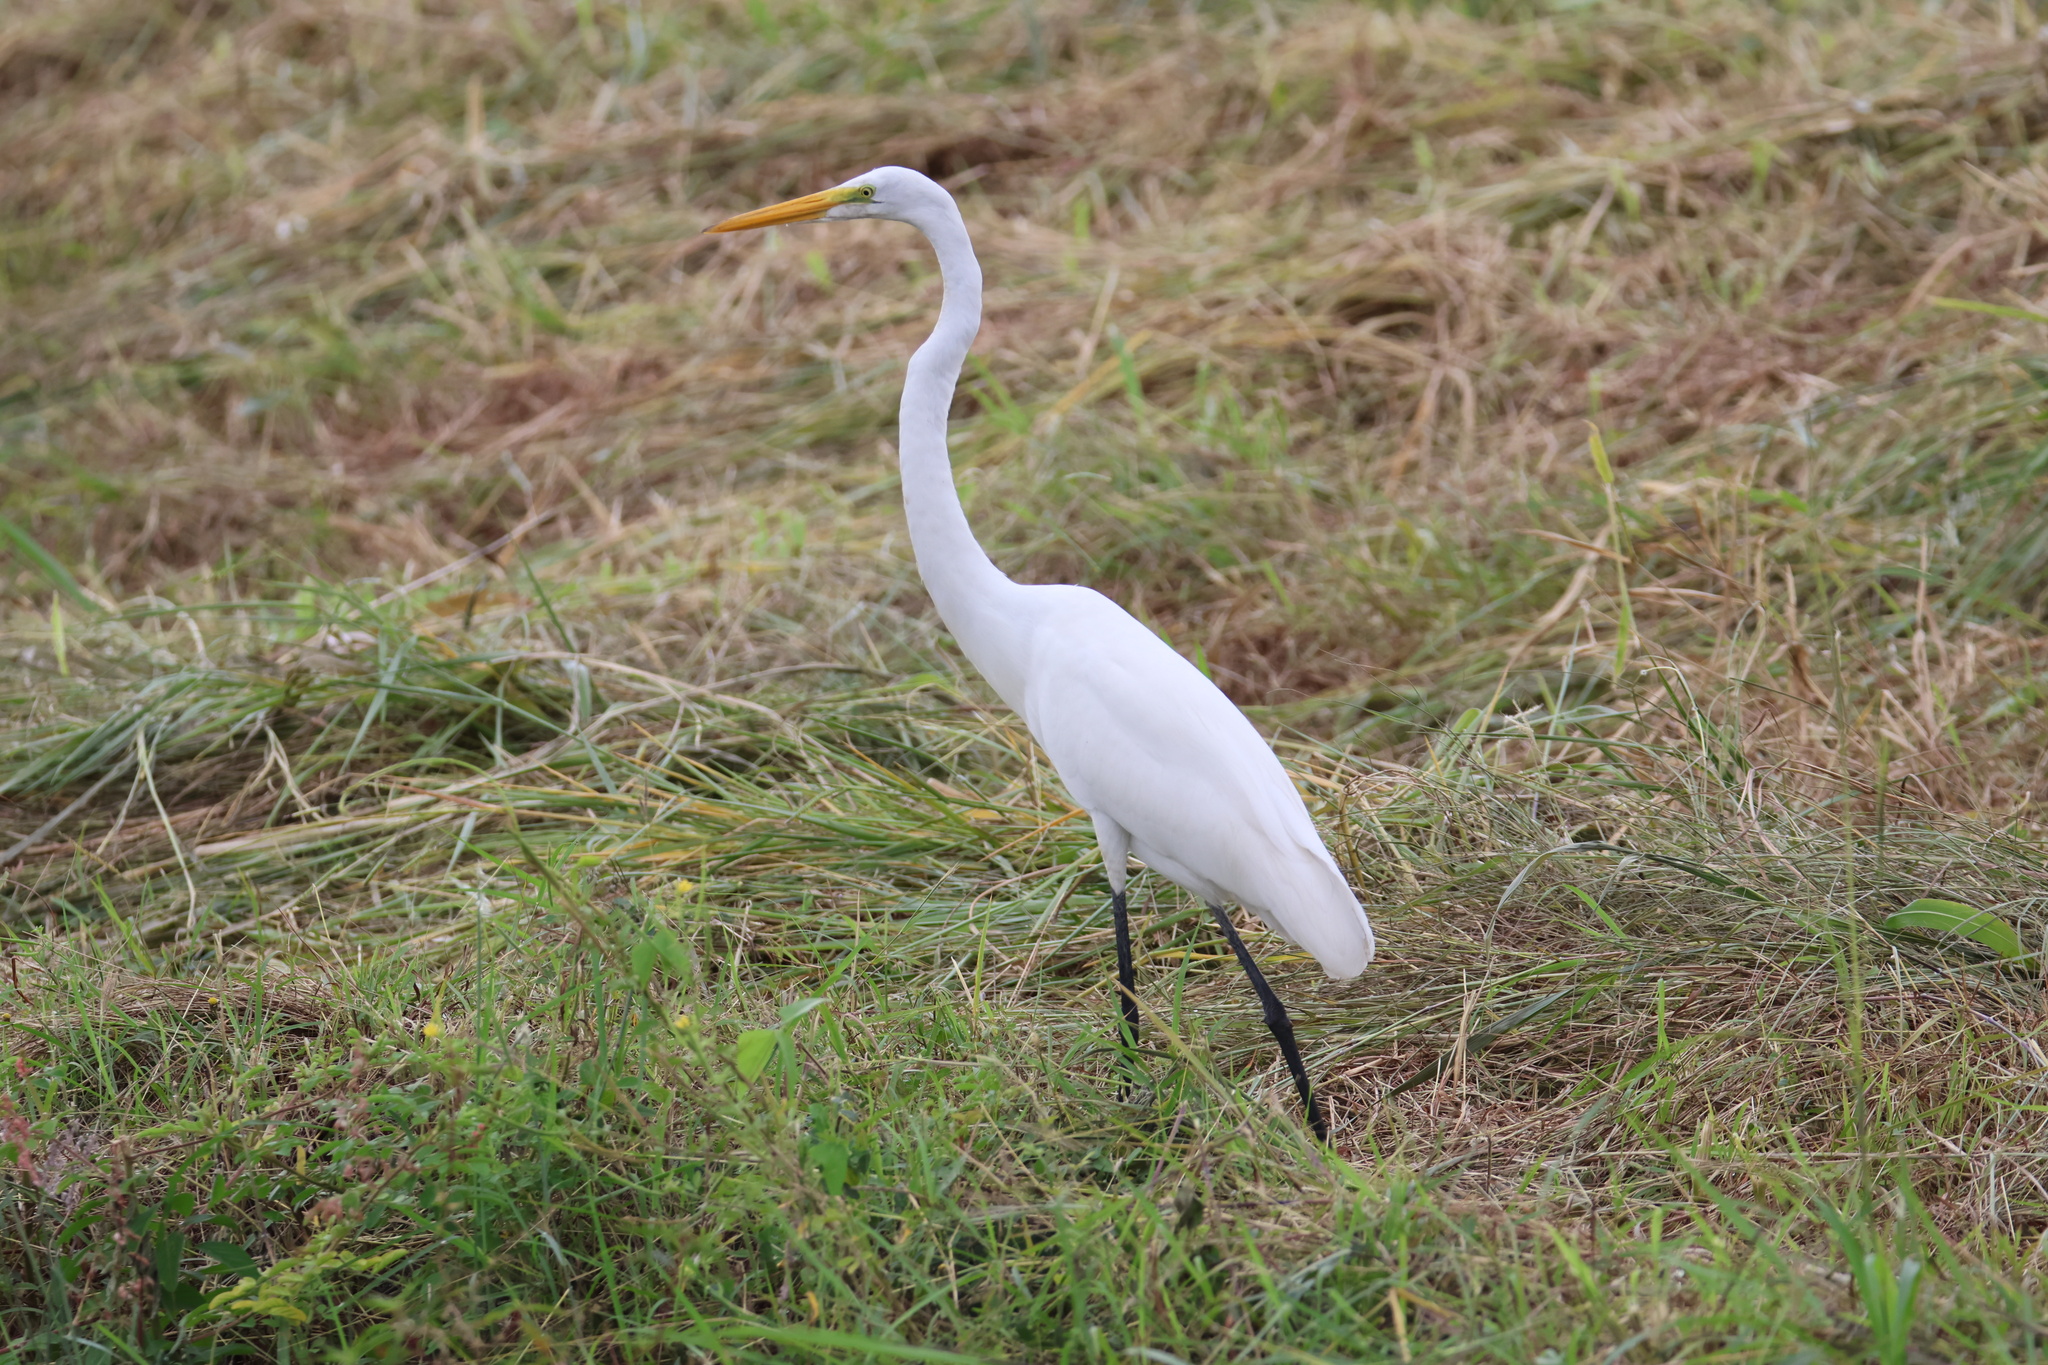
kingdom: Animalia
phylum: Chordata
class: Aves
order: Pelecaniformes
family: Ardeidae
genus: Ardea
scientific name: Ardea alba
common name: Great egret
